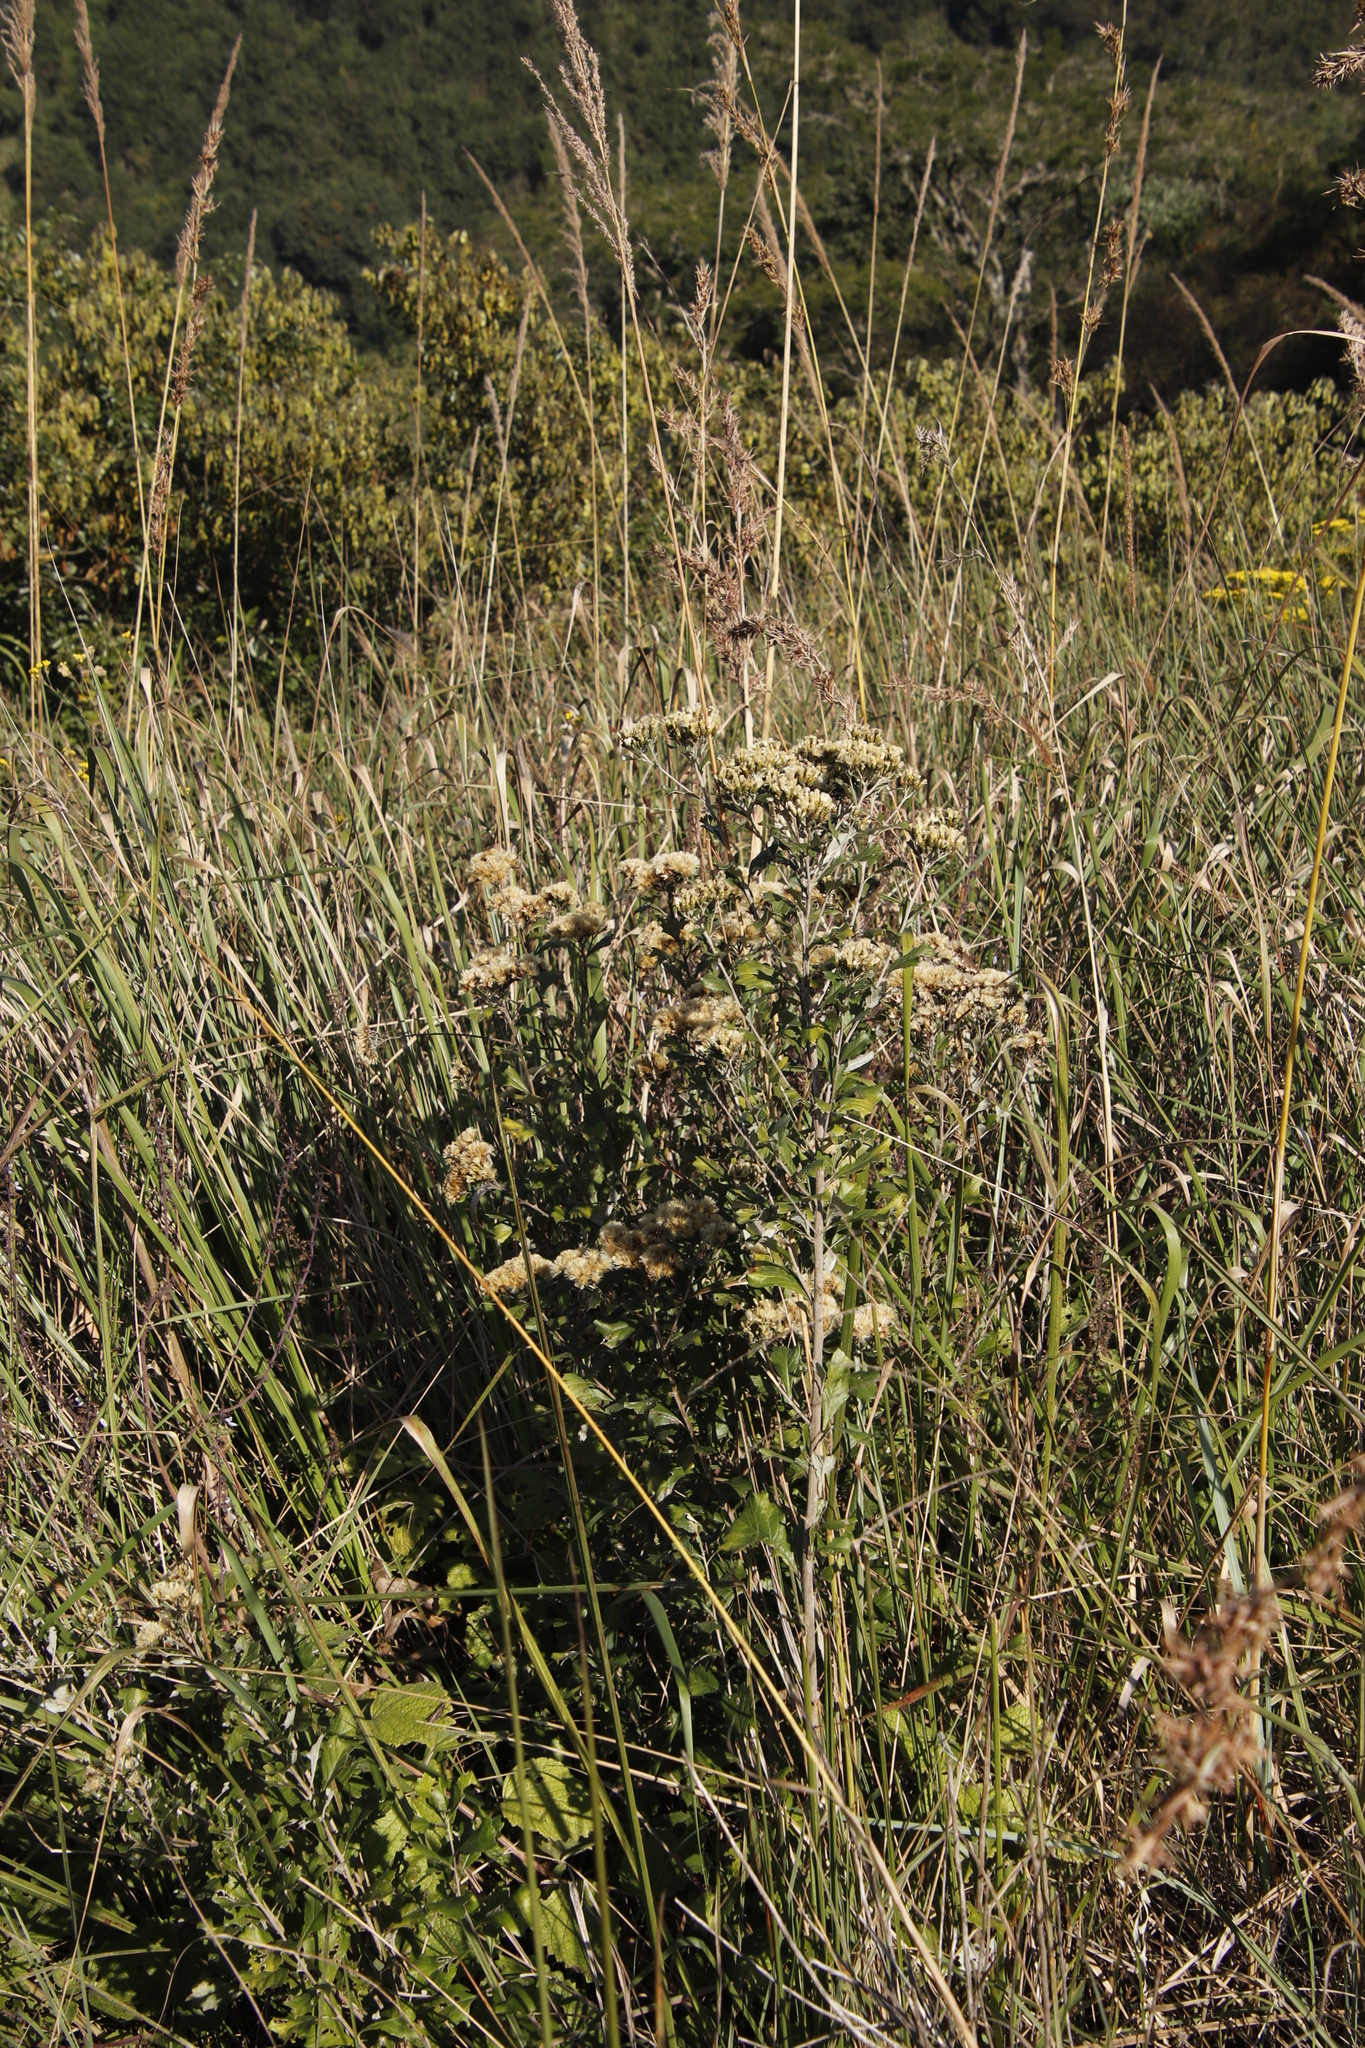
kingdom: Plantae
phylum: Tracheophyta
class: Magnoliopsida
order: Asterales
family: Asteraceae
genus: Gymnanthemum
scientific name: Gymnanthemum corymbosum
